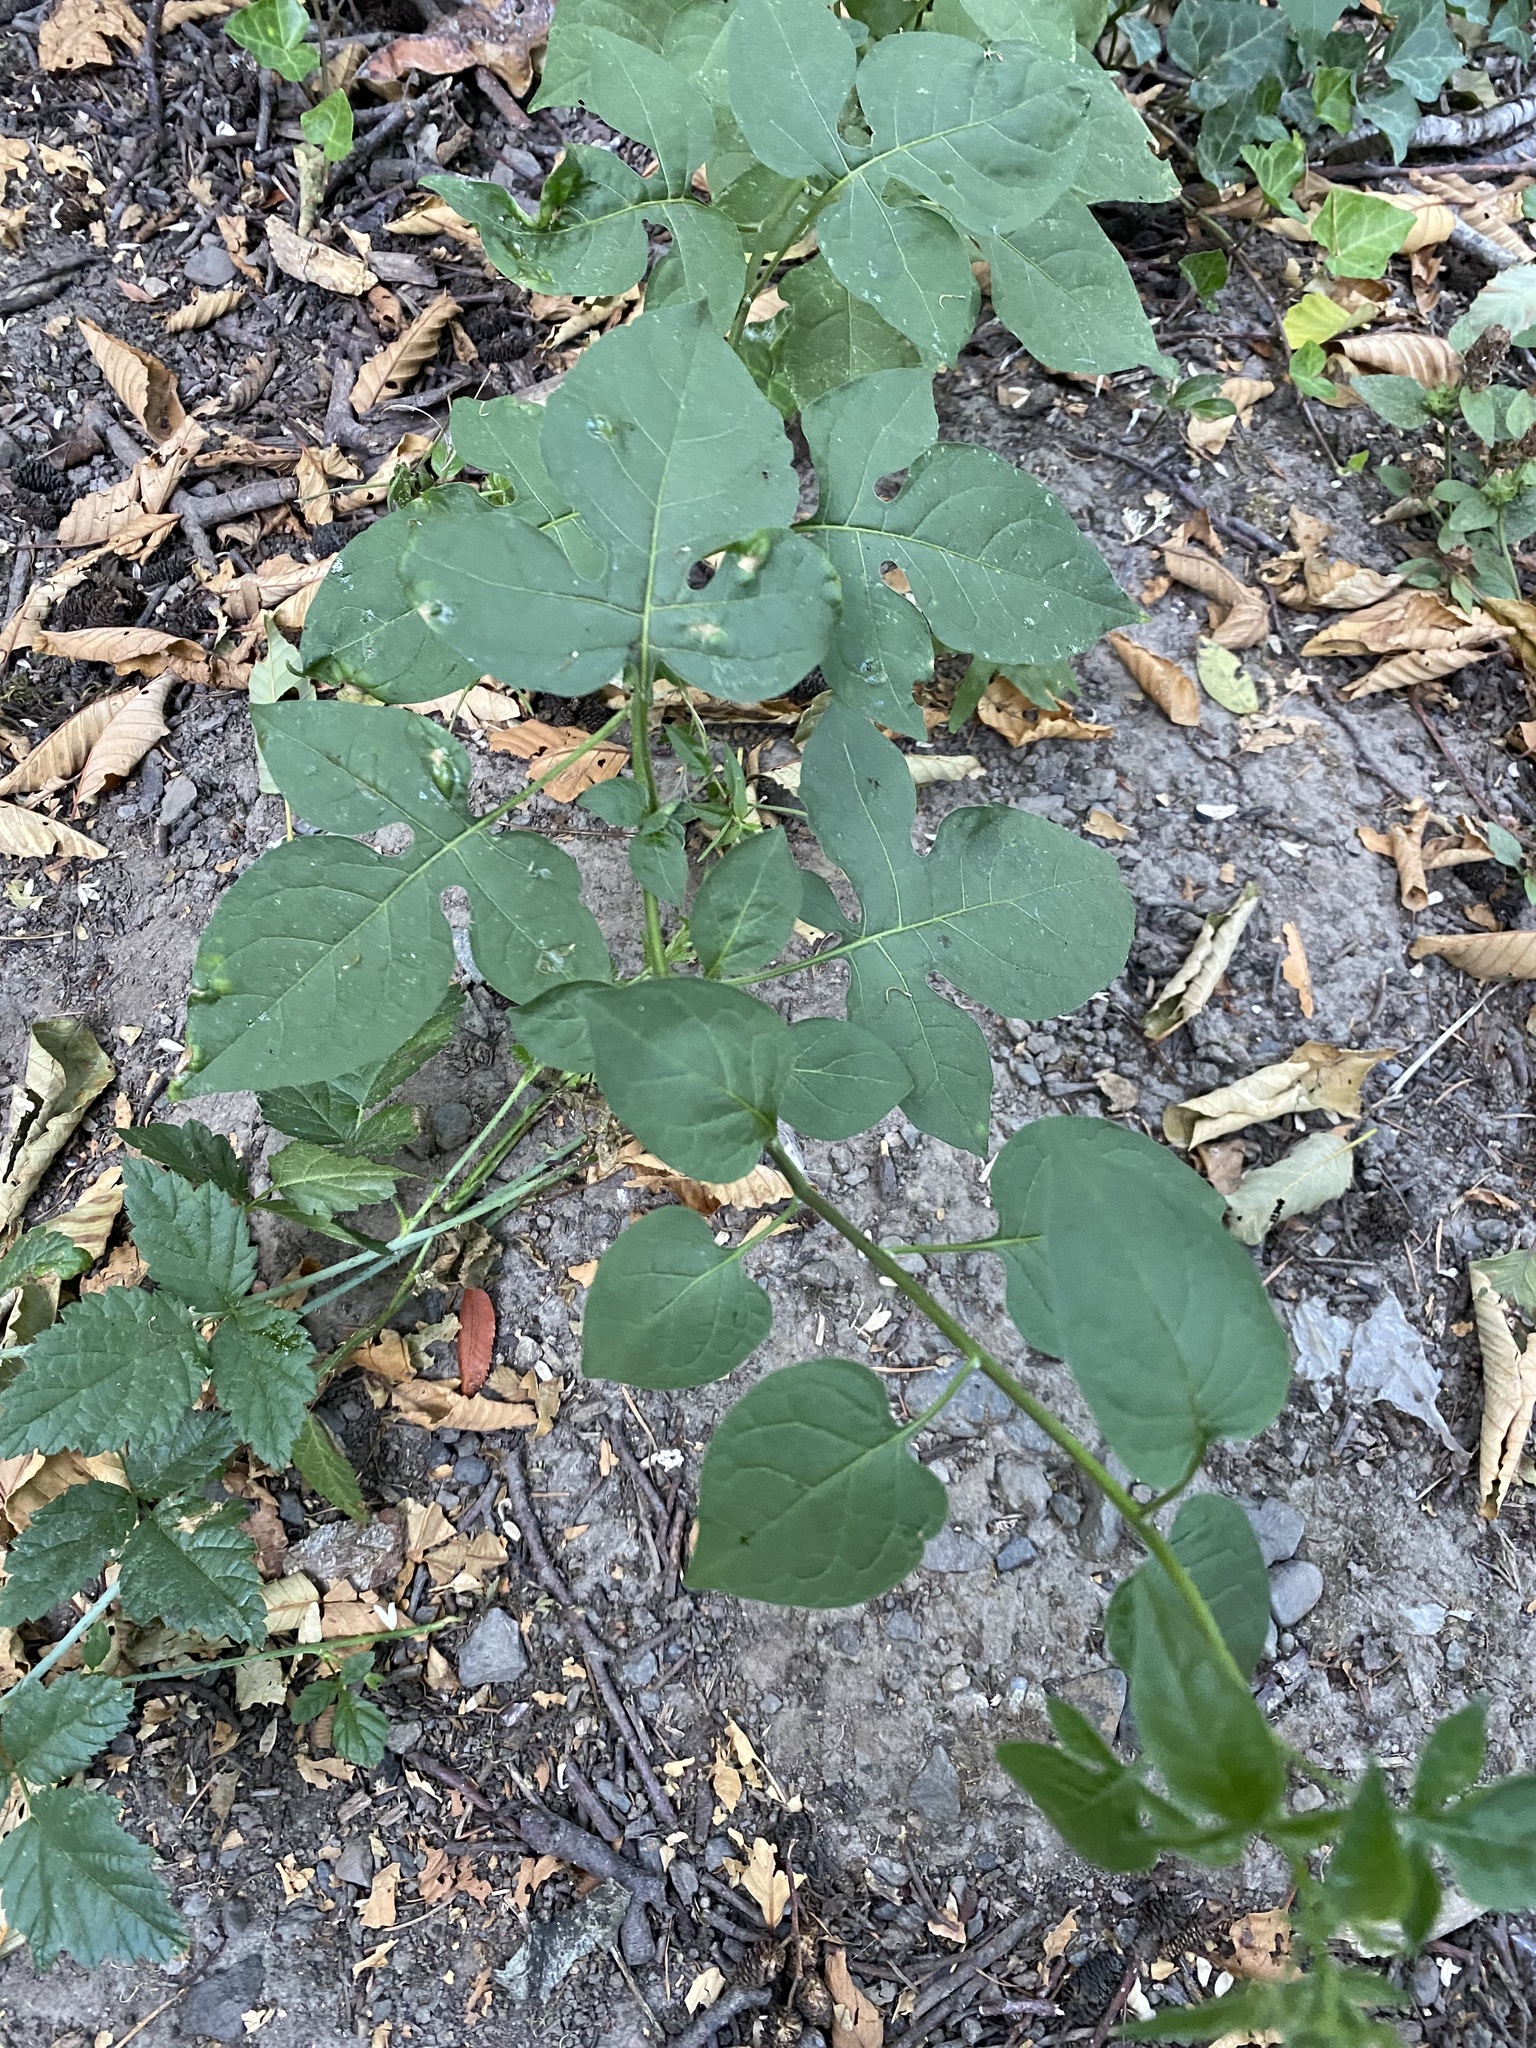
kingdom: Plantae
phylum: Tracheophyta
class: Magnoliopsida
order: Solanales
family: Solanaceae
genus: Solanum
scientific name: Solanum dulcamara
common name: Climbing nightshade
